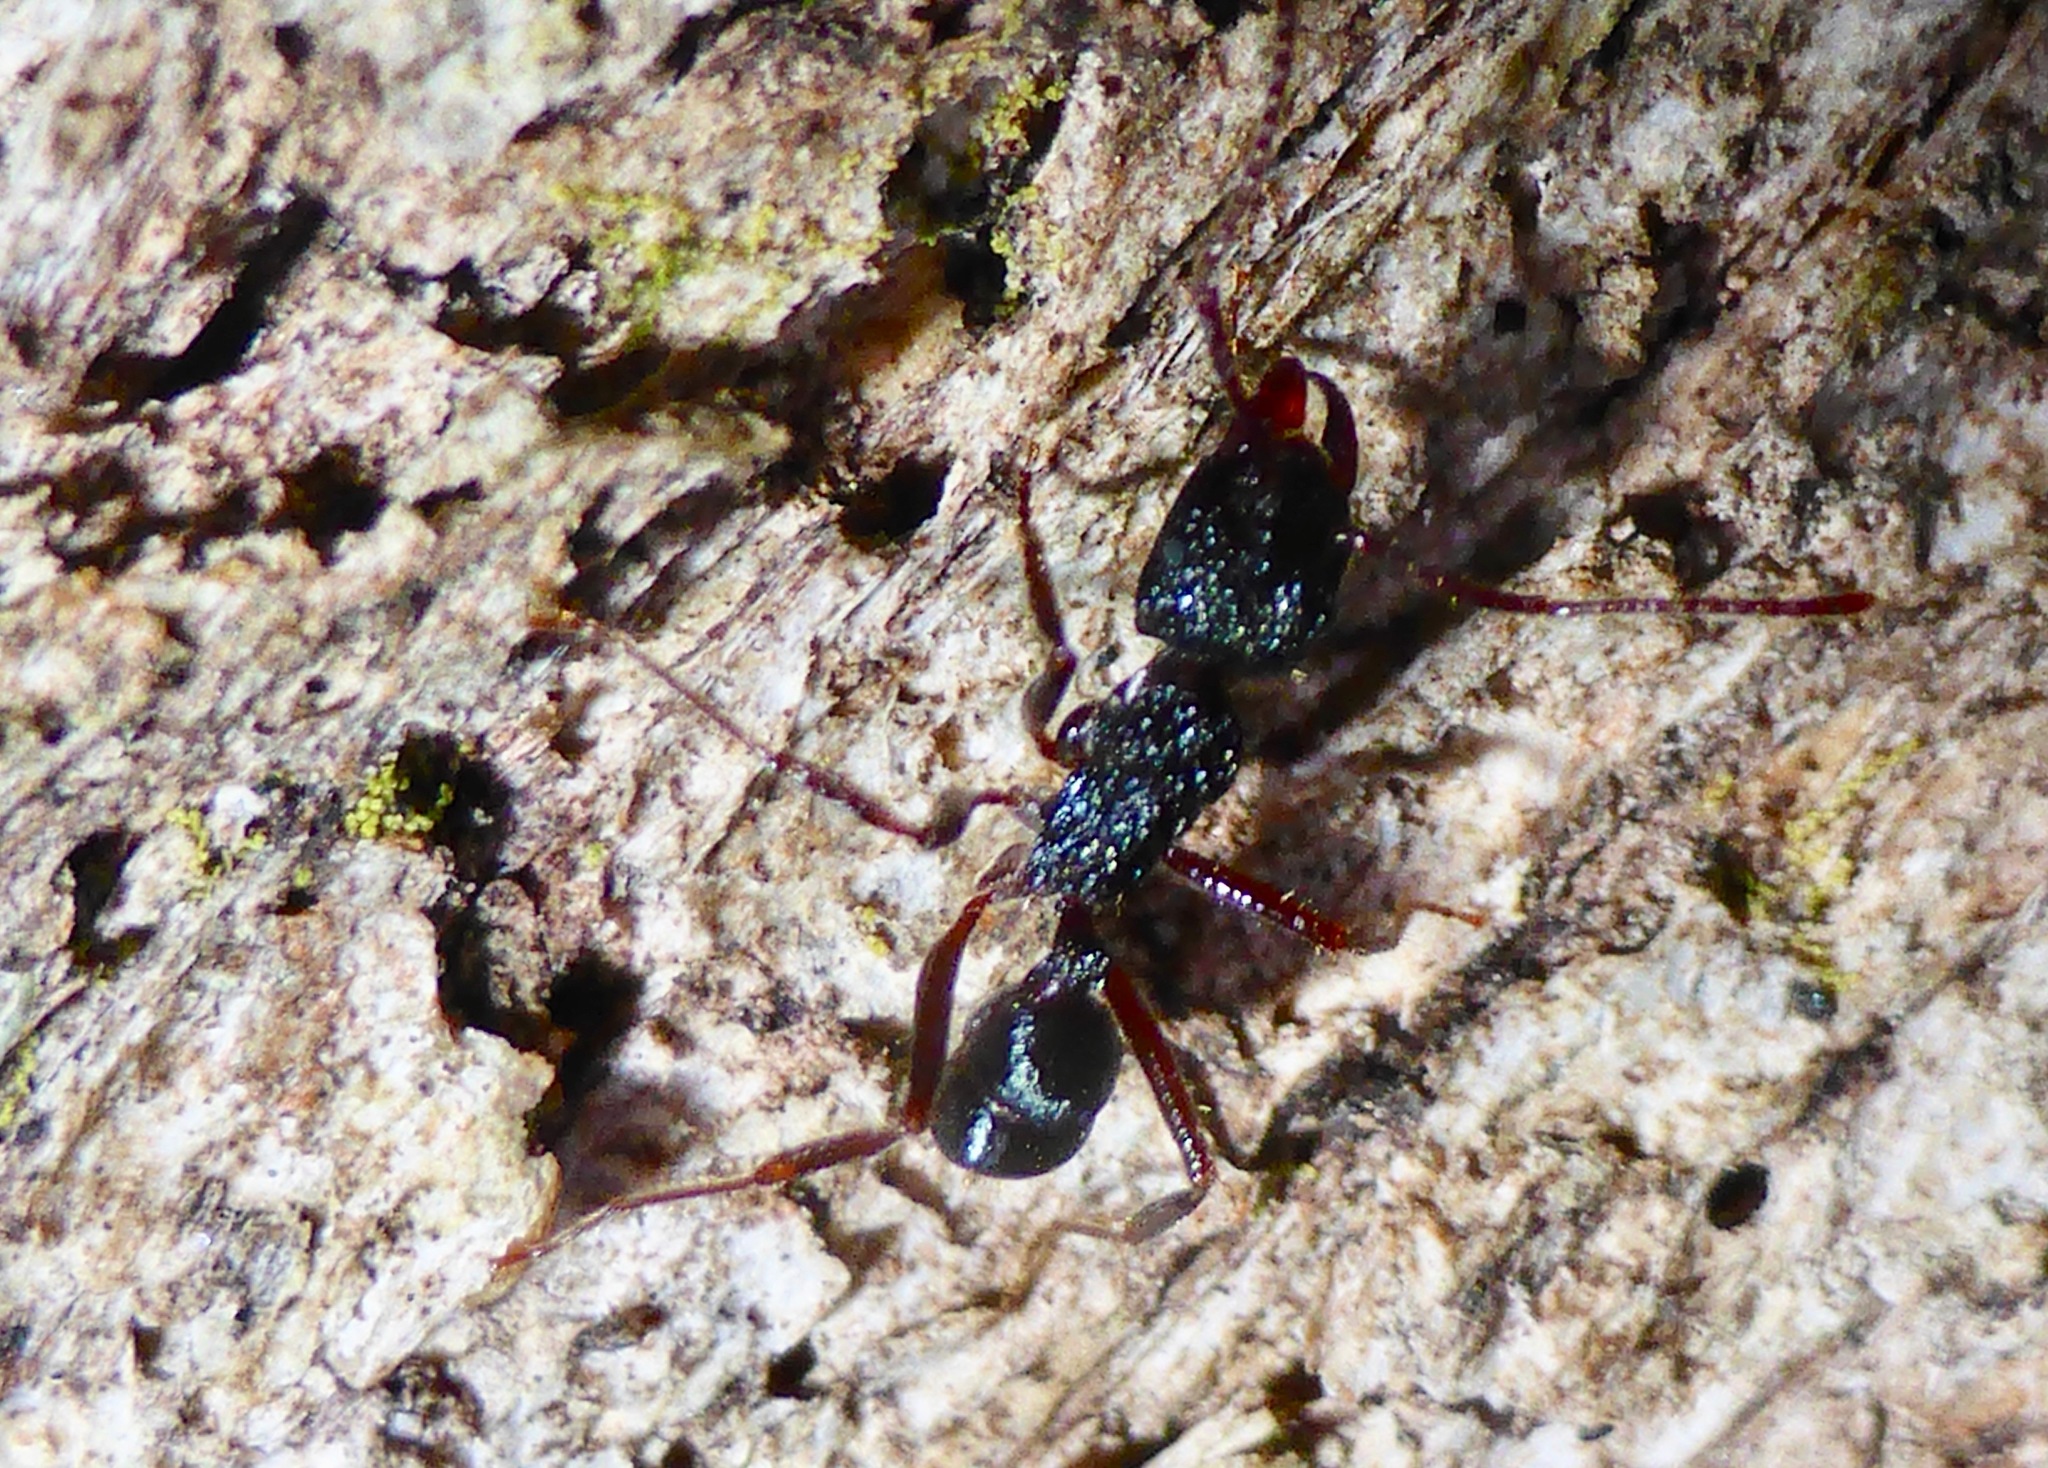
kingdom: Animalia
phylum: Arthropoda
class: Insecta
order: Hymenoptera
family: Formicidae
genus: Rhytidoponera
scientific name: Rhytidoponera chalybaea
